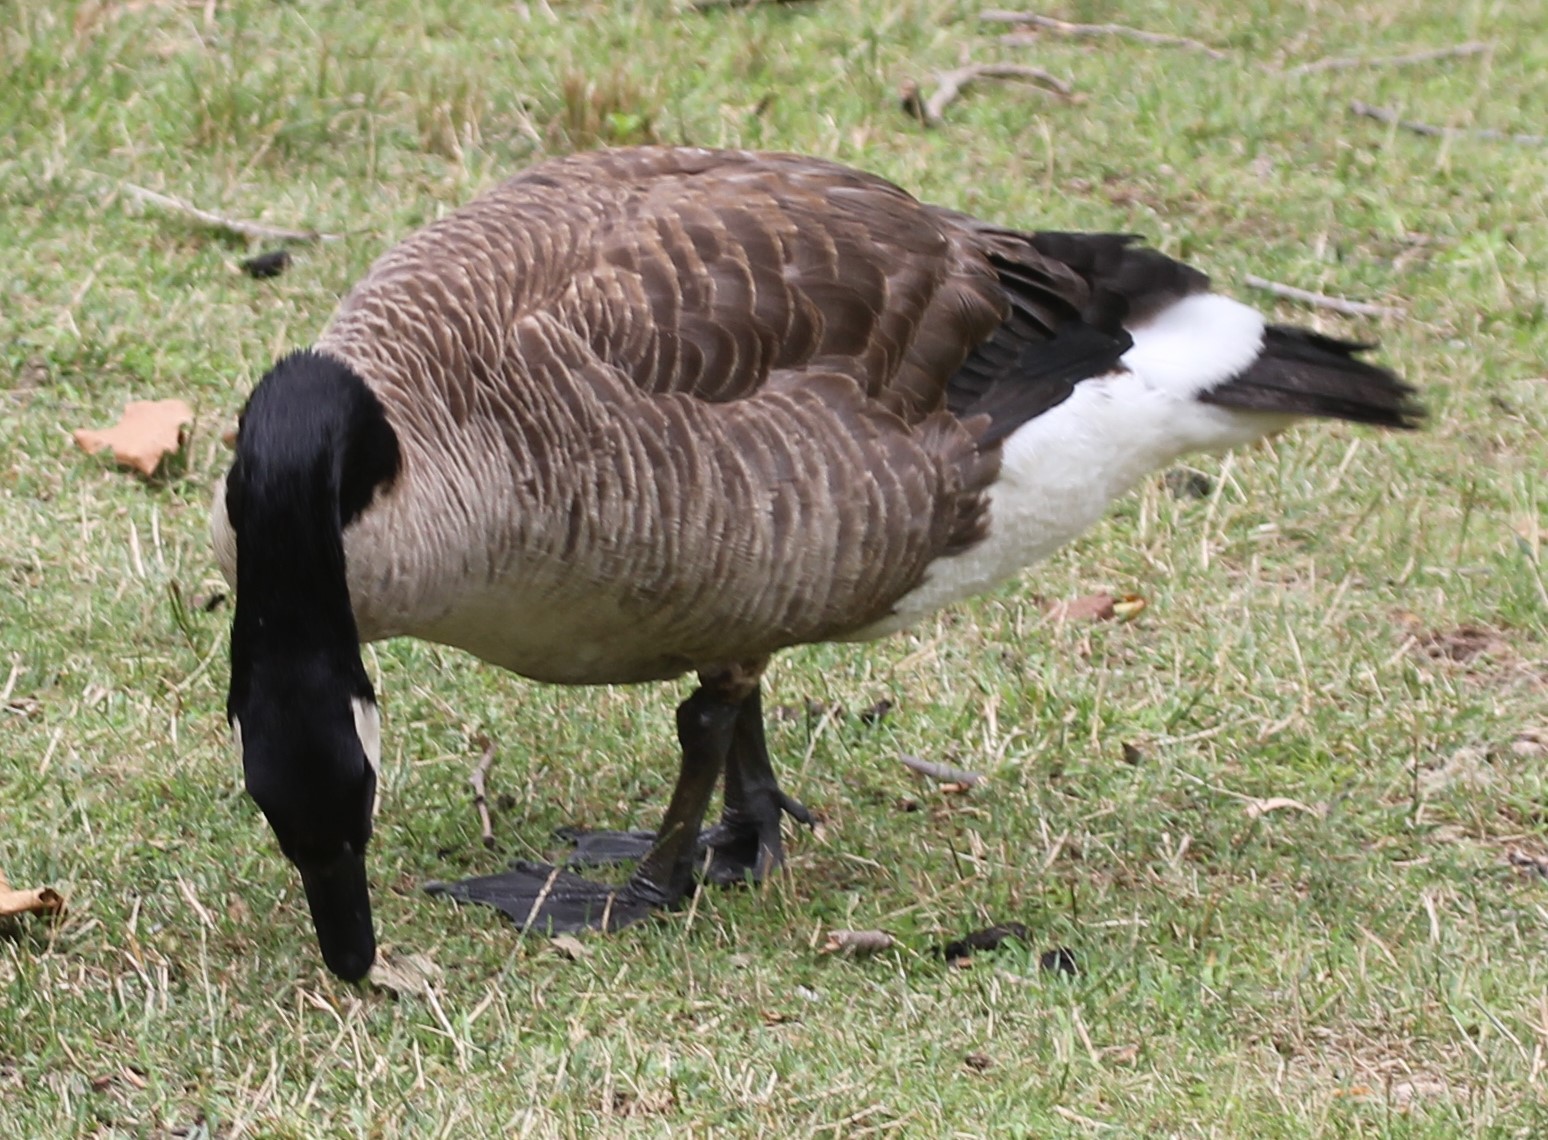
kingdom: Animalia
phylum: Chordata
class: Aves
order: Anseriformes
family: Anatidae
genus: Branta
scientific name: Branta canadensis
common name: Canada goose
